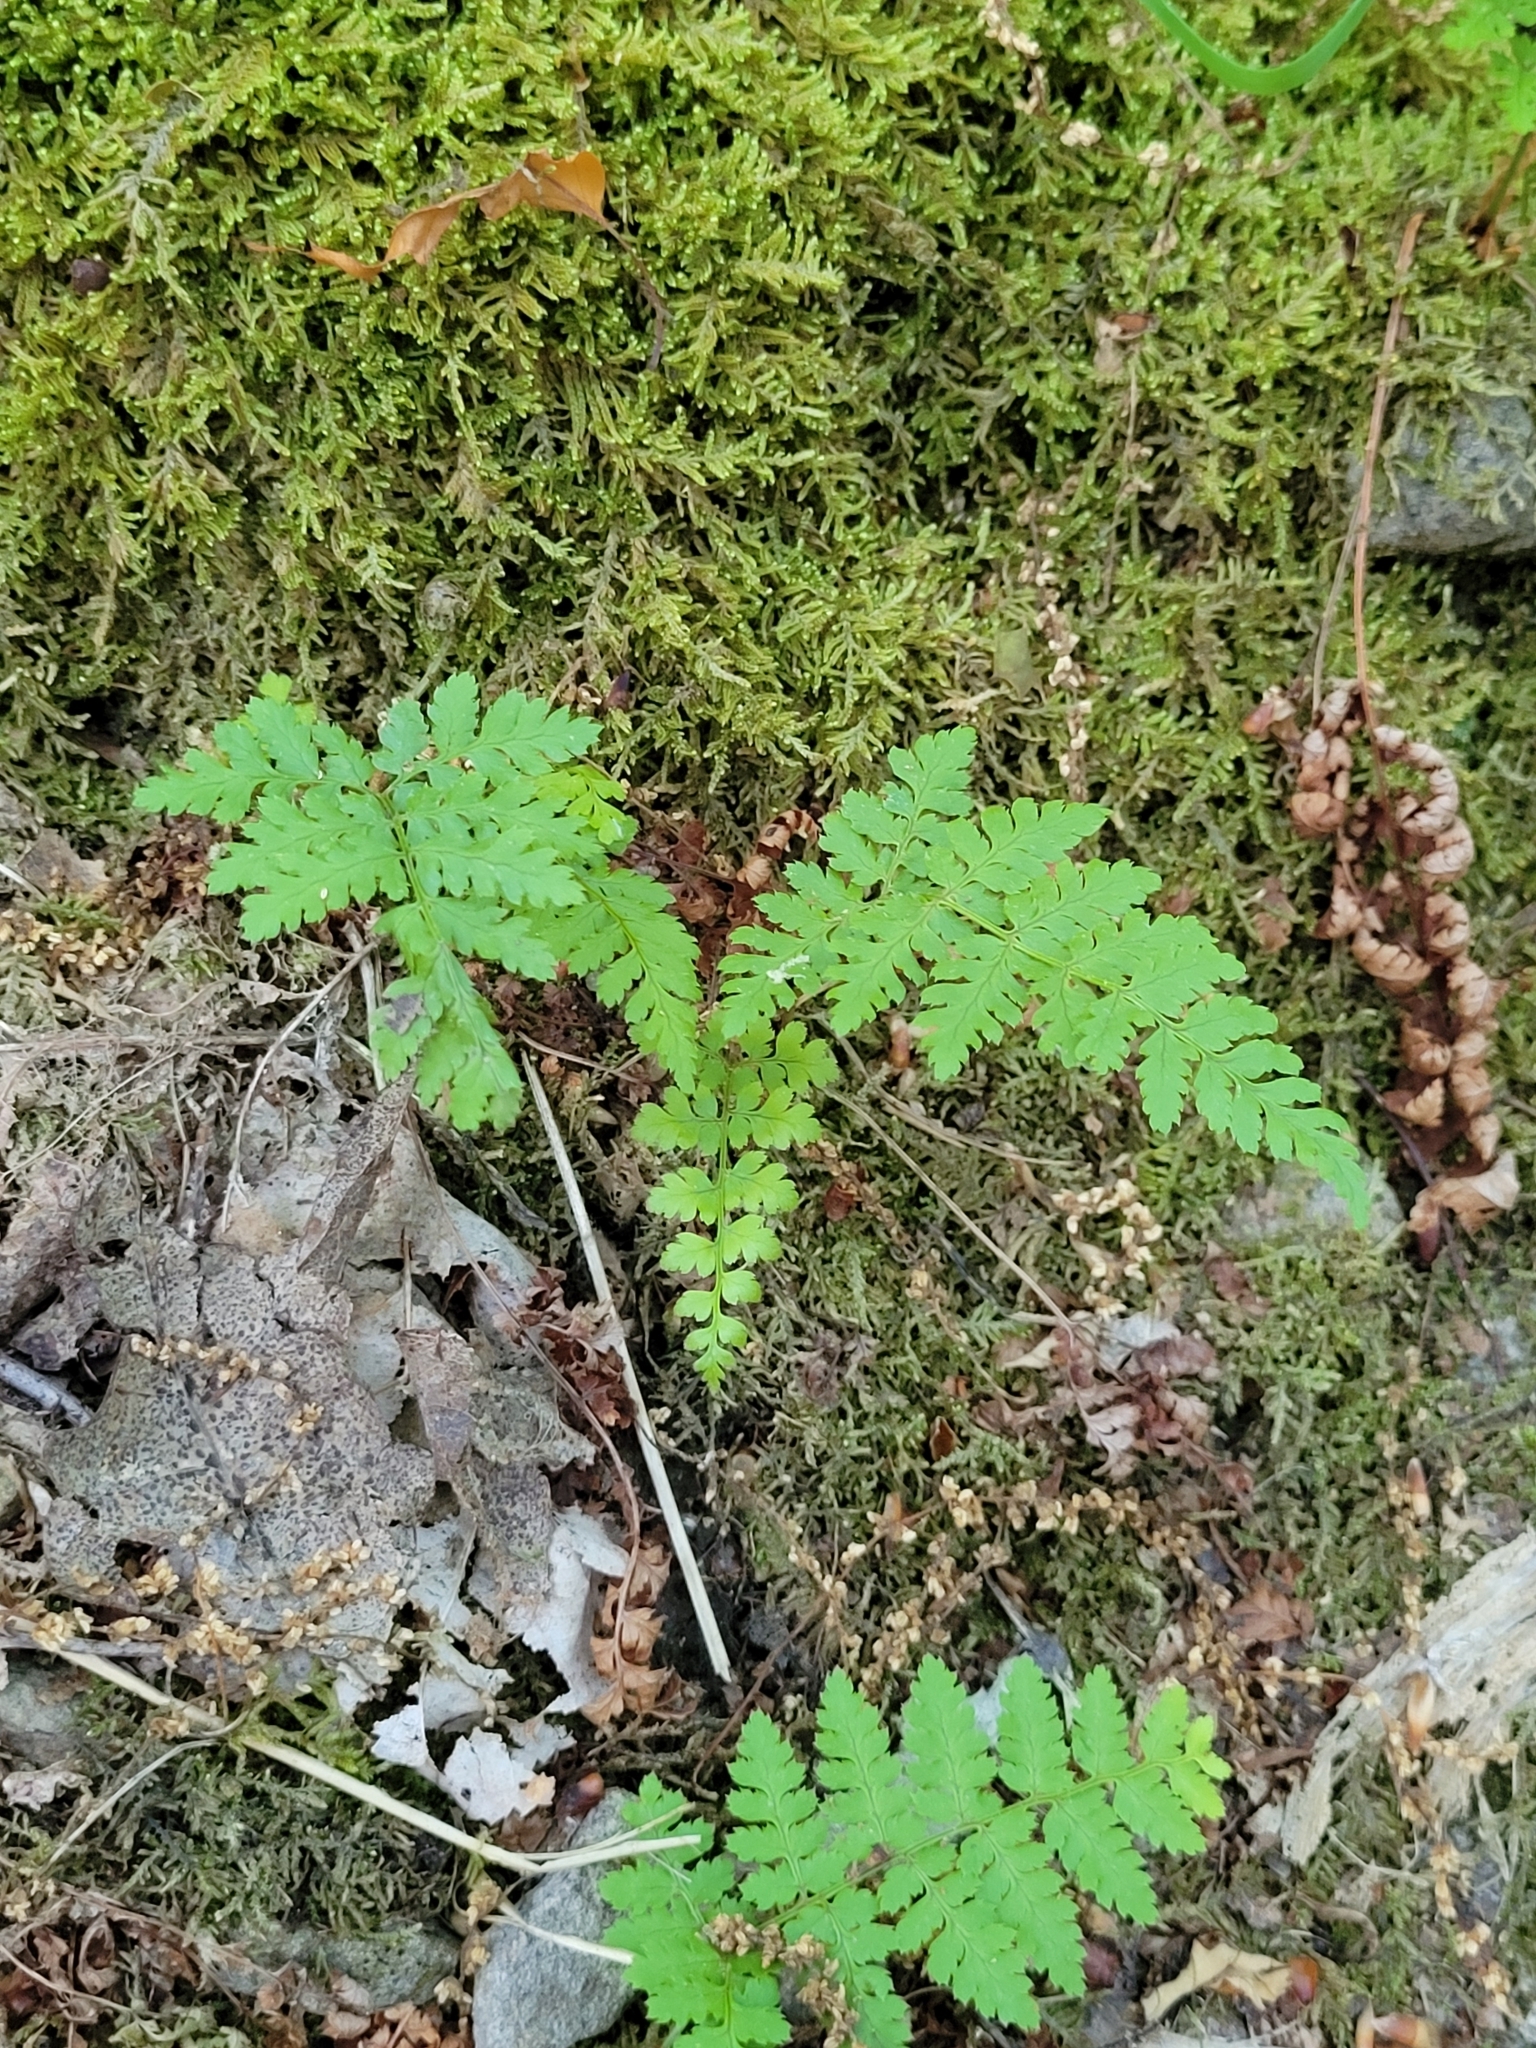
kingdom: Plantae
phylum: Tracheophyta
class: Polypodiopsida
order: Polypodiales
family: Dryopteridaceae
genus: Dryopteris
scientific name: Dryopteris intermedia
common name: Evergreen wood fern
